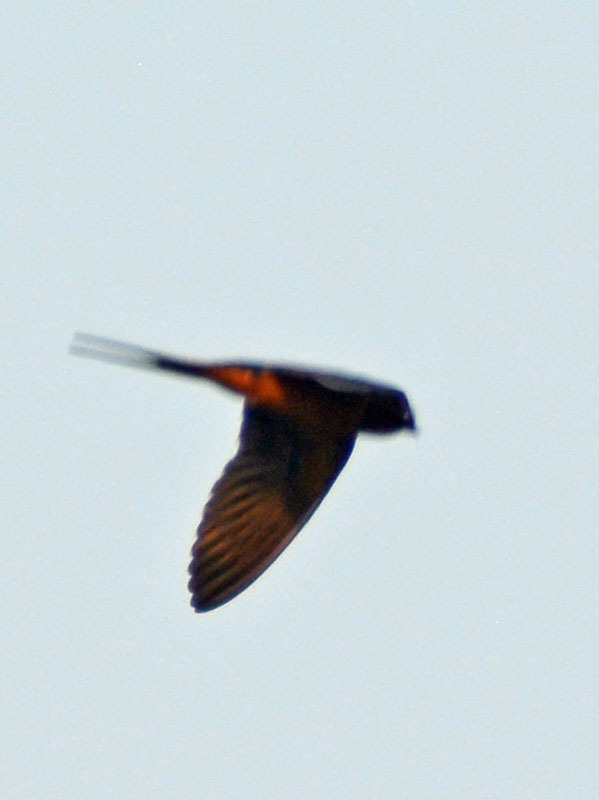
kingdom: Animalia
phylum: Chordata
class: Aves
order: Passeriformes
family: Hirundinidae
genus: Hirundo
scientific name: Hirundo rustica
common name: Barn swallow
